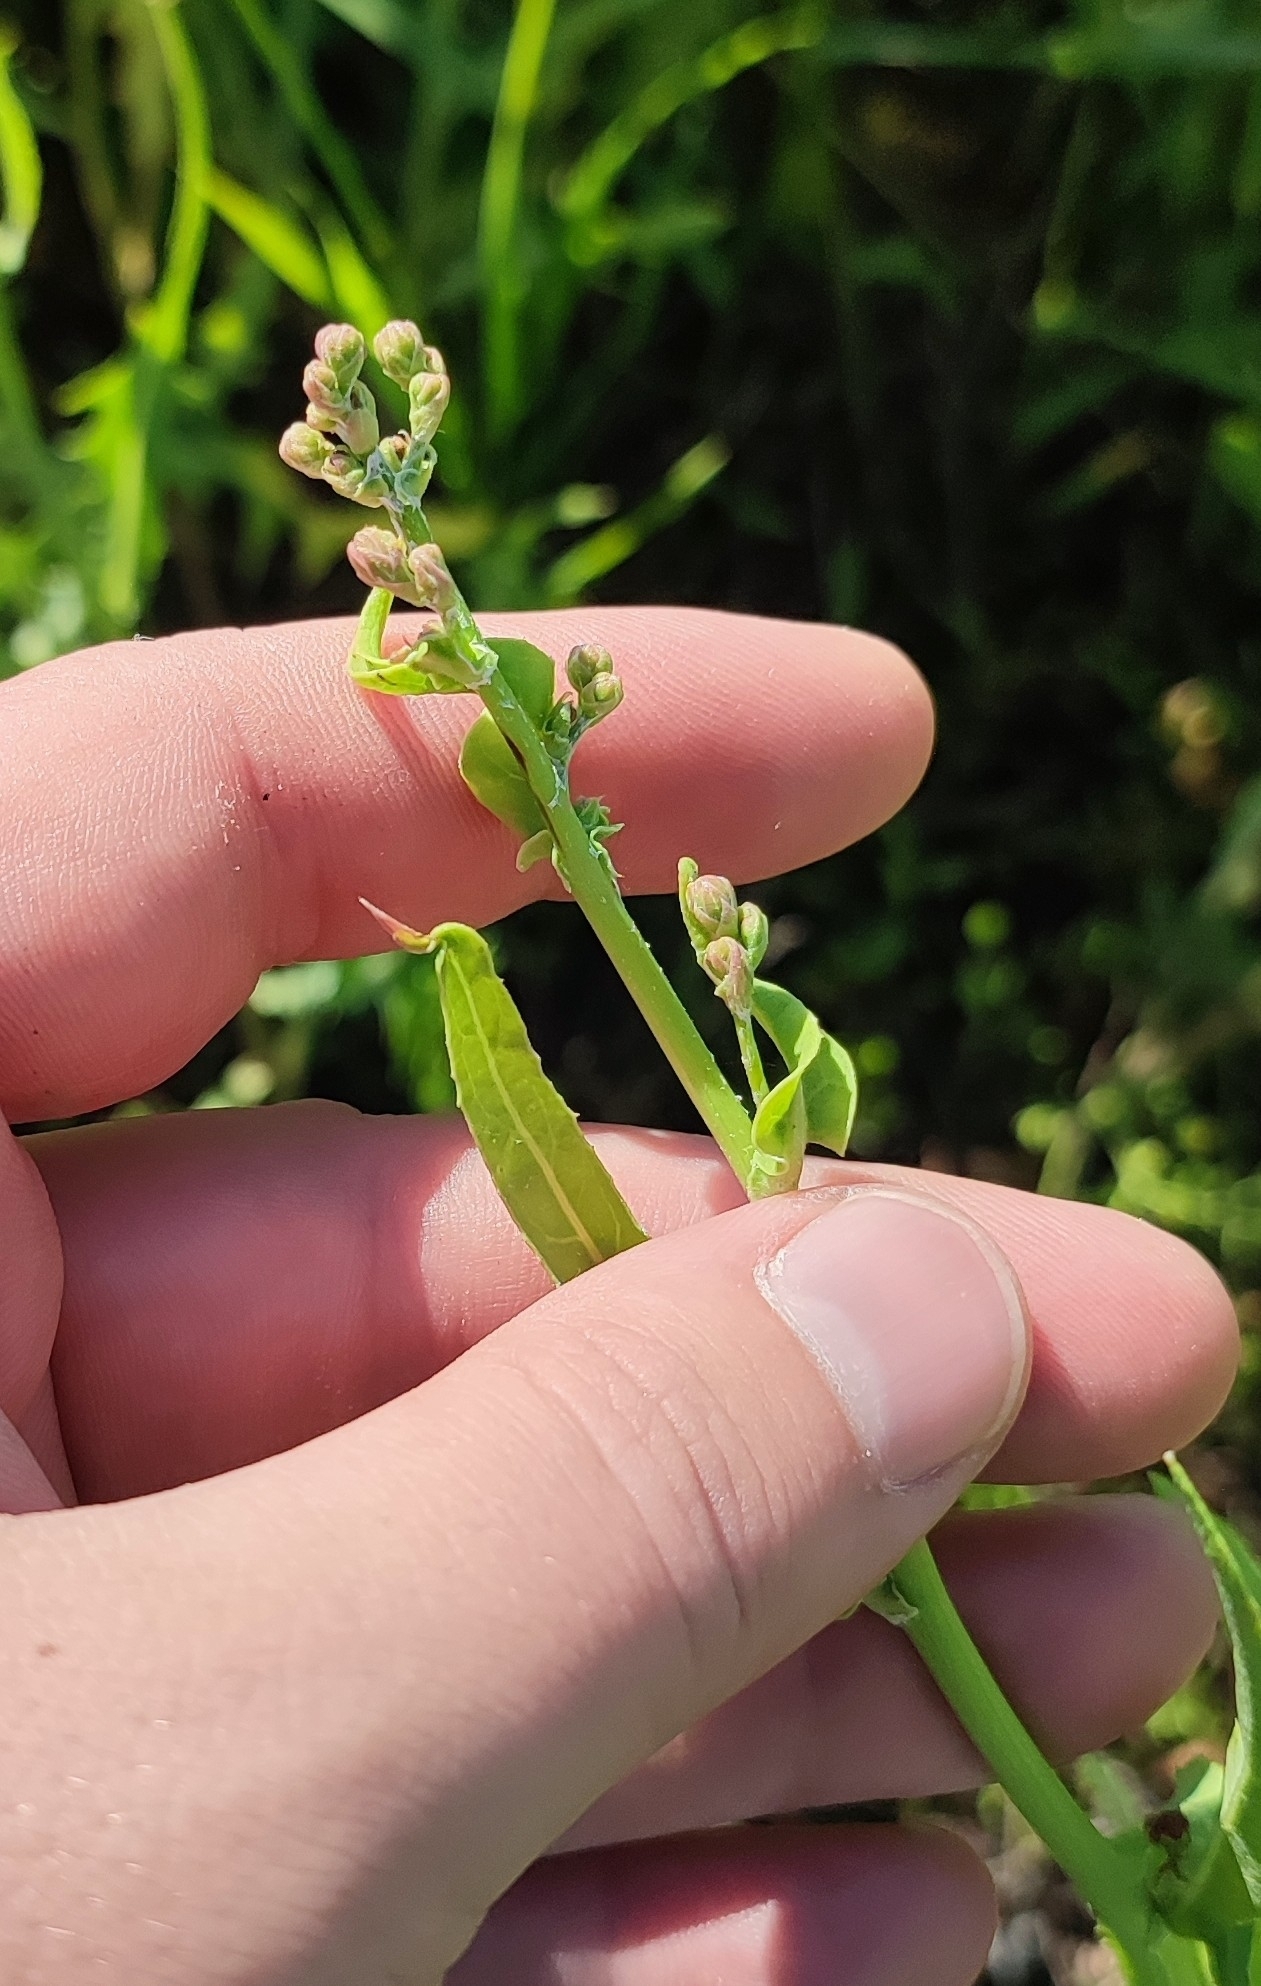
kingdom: Plantae
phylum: Tracheophyta
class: Magnoliopsida
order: Asterales
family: Asteraceae
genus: Lactuca
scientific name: Lactuca tatarica
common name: Blue lettuce
